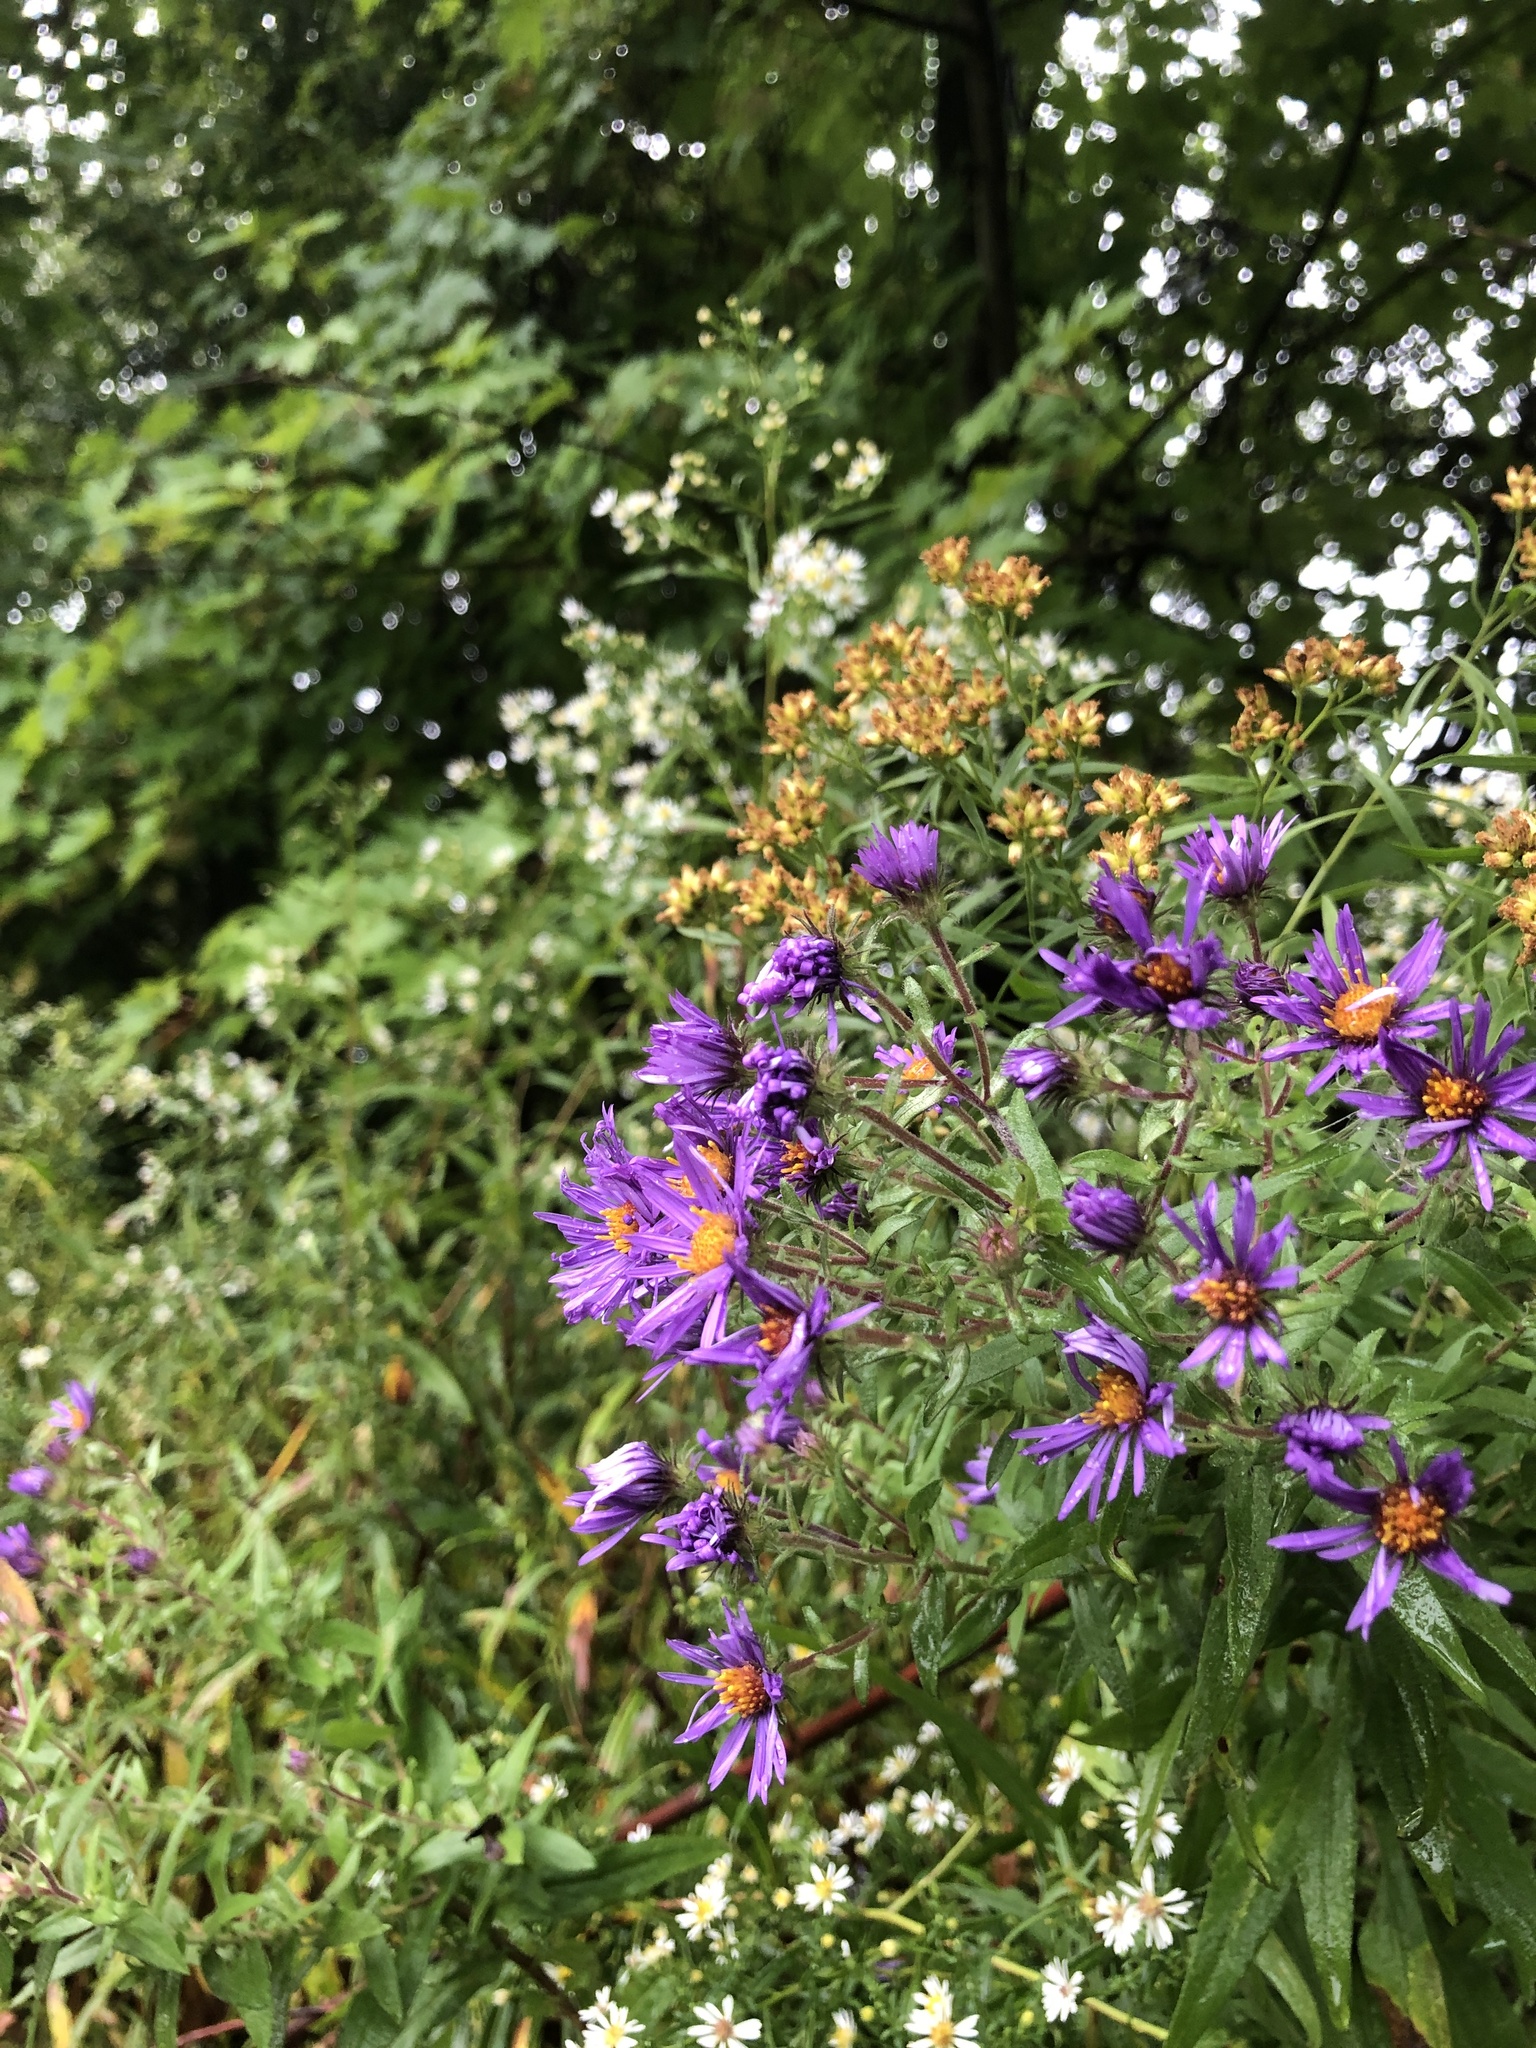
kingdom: Plantae
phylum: Tracheophyta
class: Magnoliopsida
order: Asterales
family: Asteraceae
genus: Symphyotrichum
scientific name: Symphyotrichum novae-angliae
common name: Michaelmas daisy
